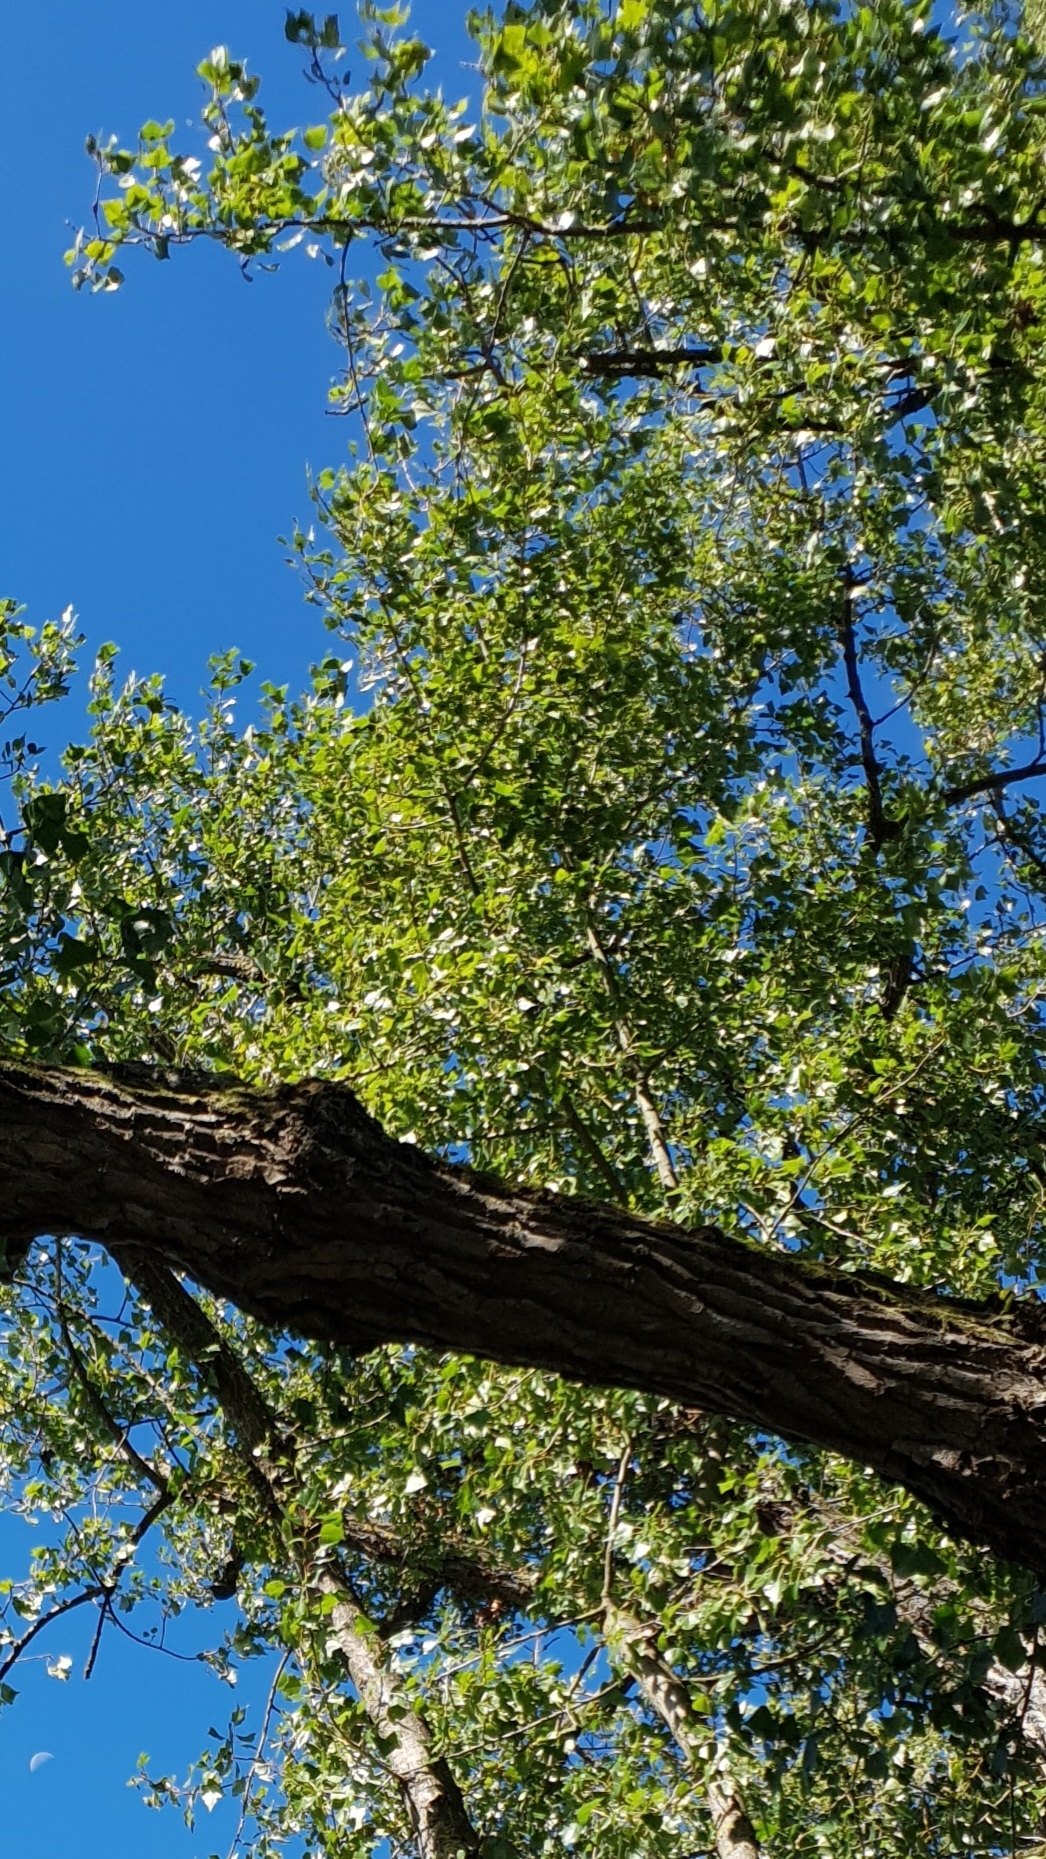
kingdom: Plantae
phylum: Tracheophyta
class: Magnoliopsida
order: Malpighiales
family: Salicaceae
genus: Populus
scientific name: Populus nigra
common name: Black poplar
